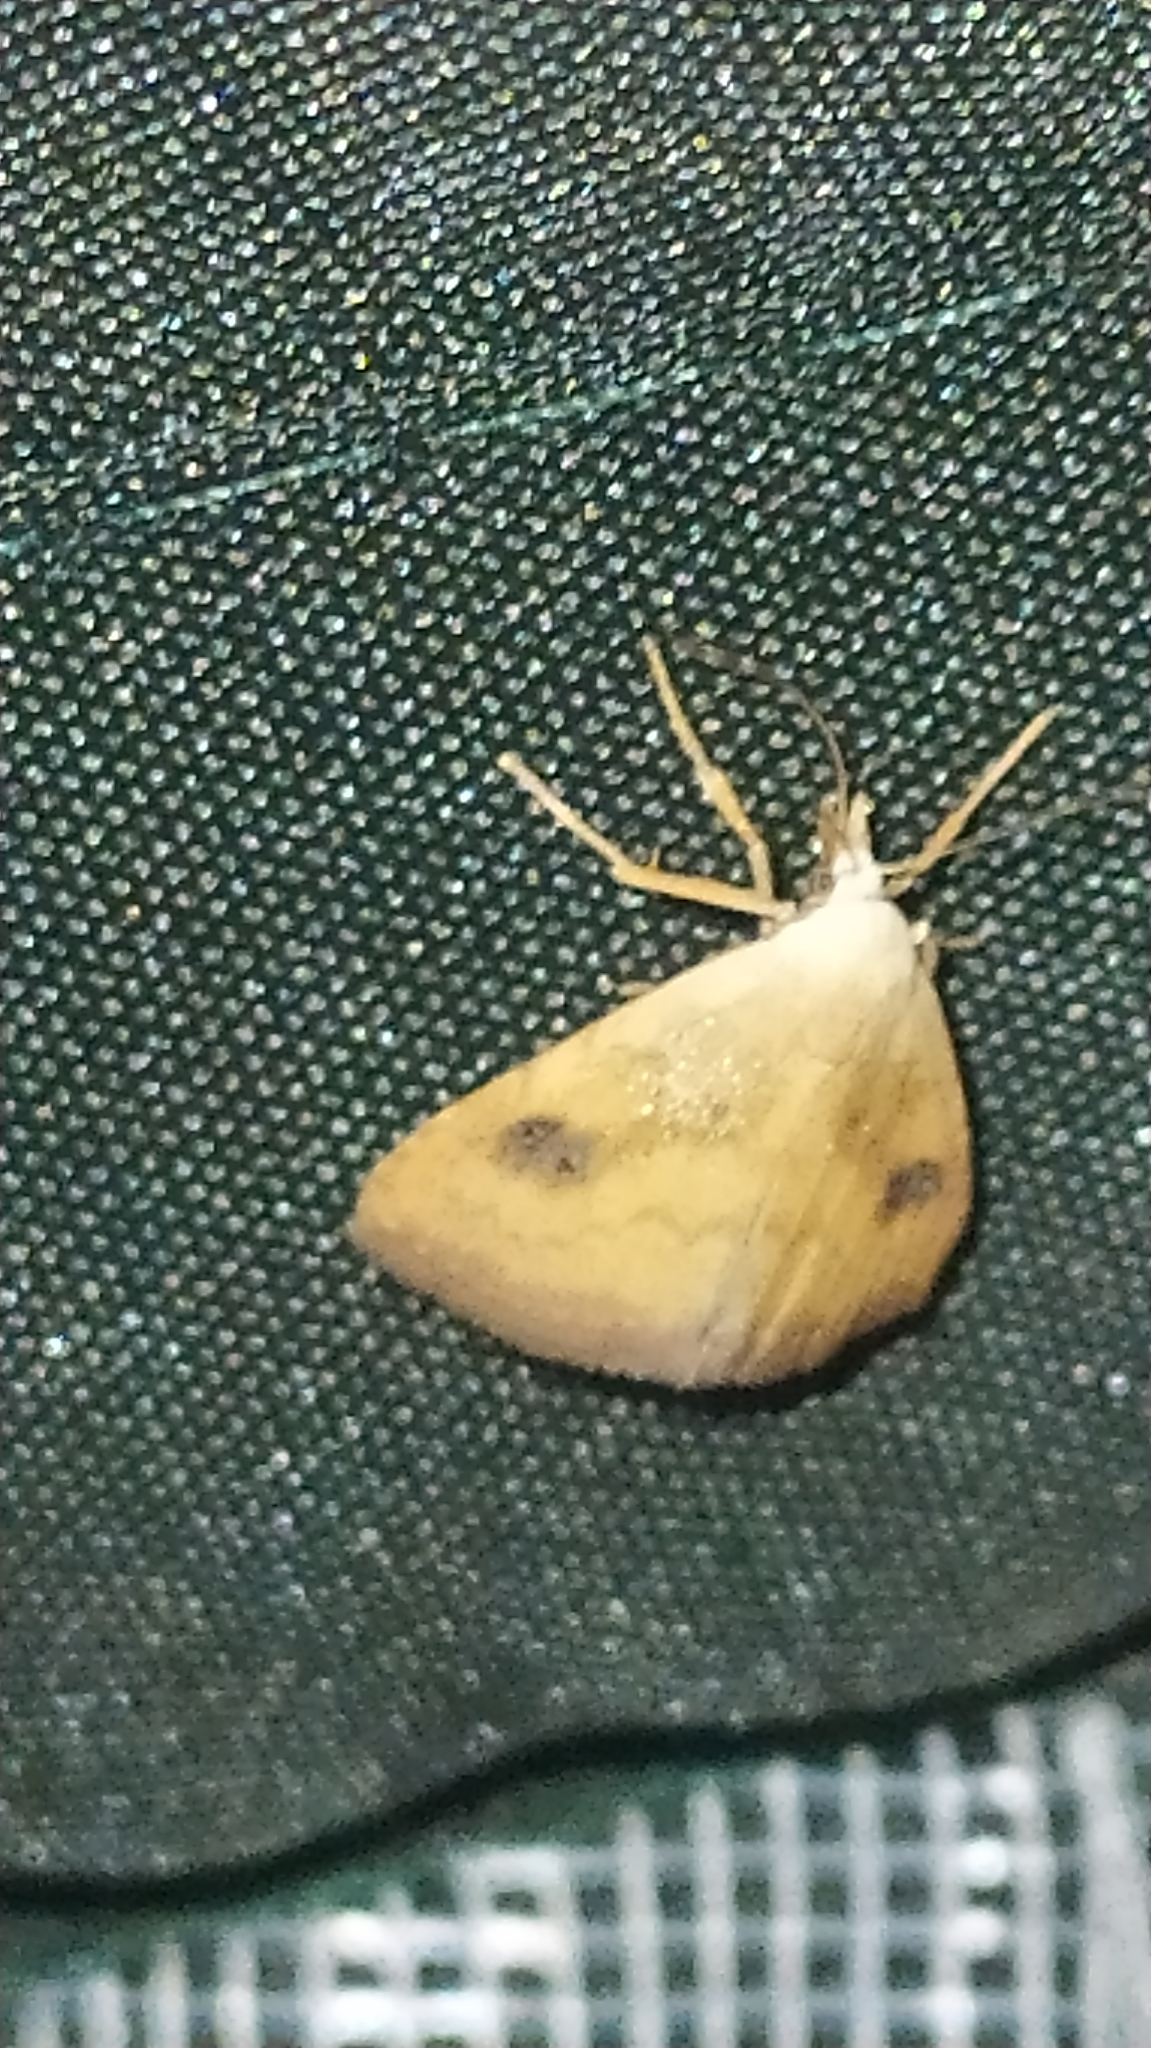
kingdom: Animalia
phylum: Arthropoda
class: Insecta
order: Lepidoptera
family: Erebidae
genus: Rivula
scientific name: Rivula sericealis
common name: Straw dot
